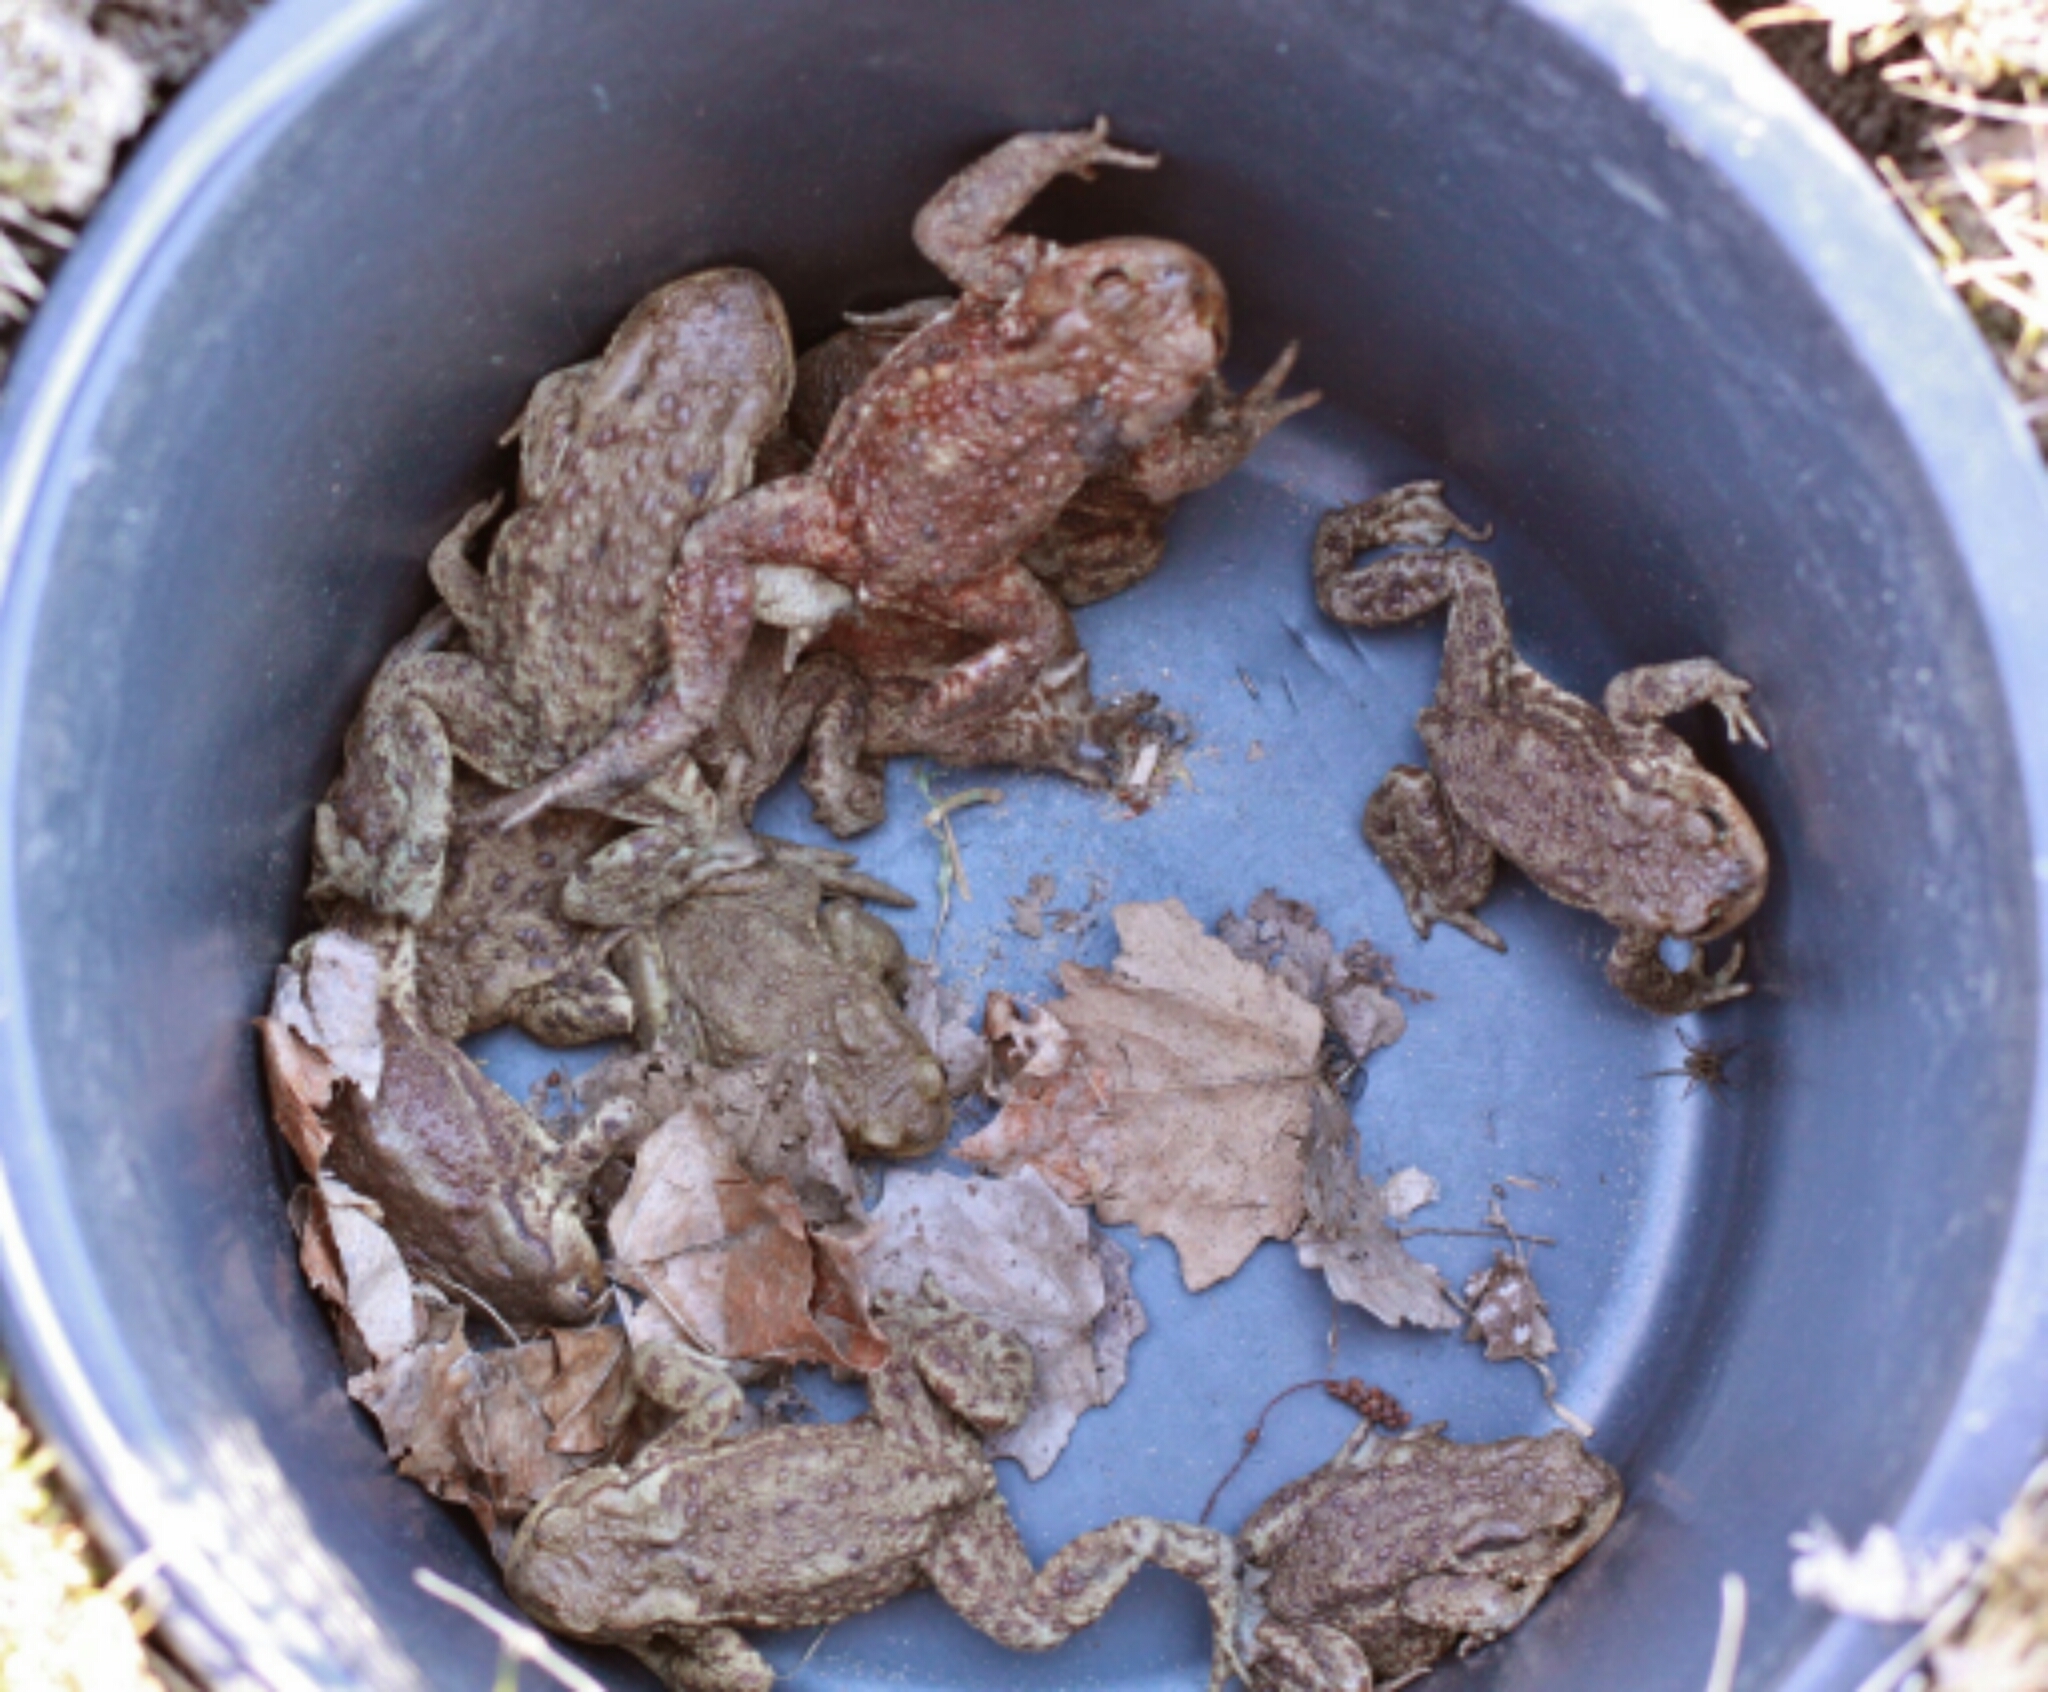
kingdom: Animalia
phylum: Chordata
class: Amphibia
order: Anura
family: Bufonidae
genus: Bufo
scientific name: Bufo bufo
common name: Common toad
